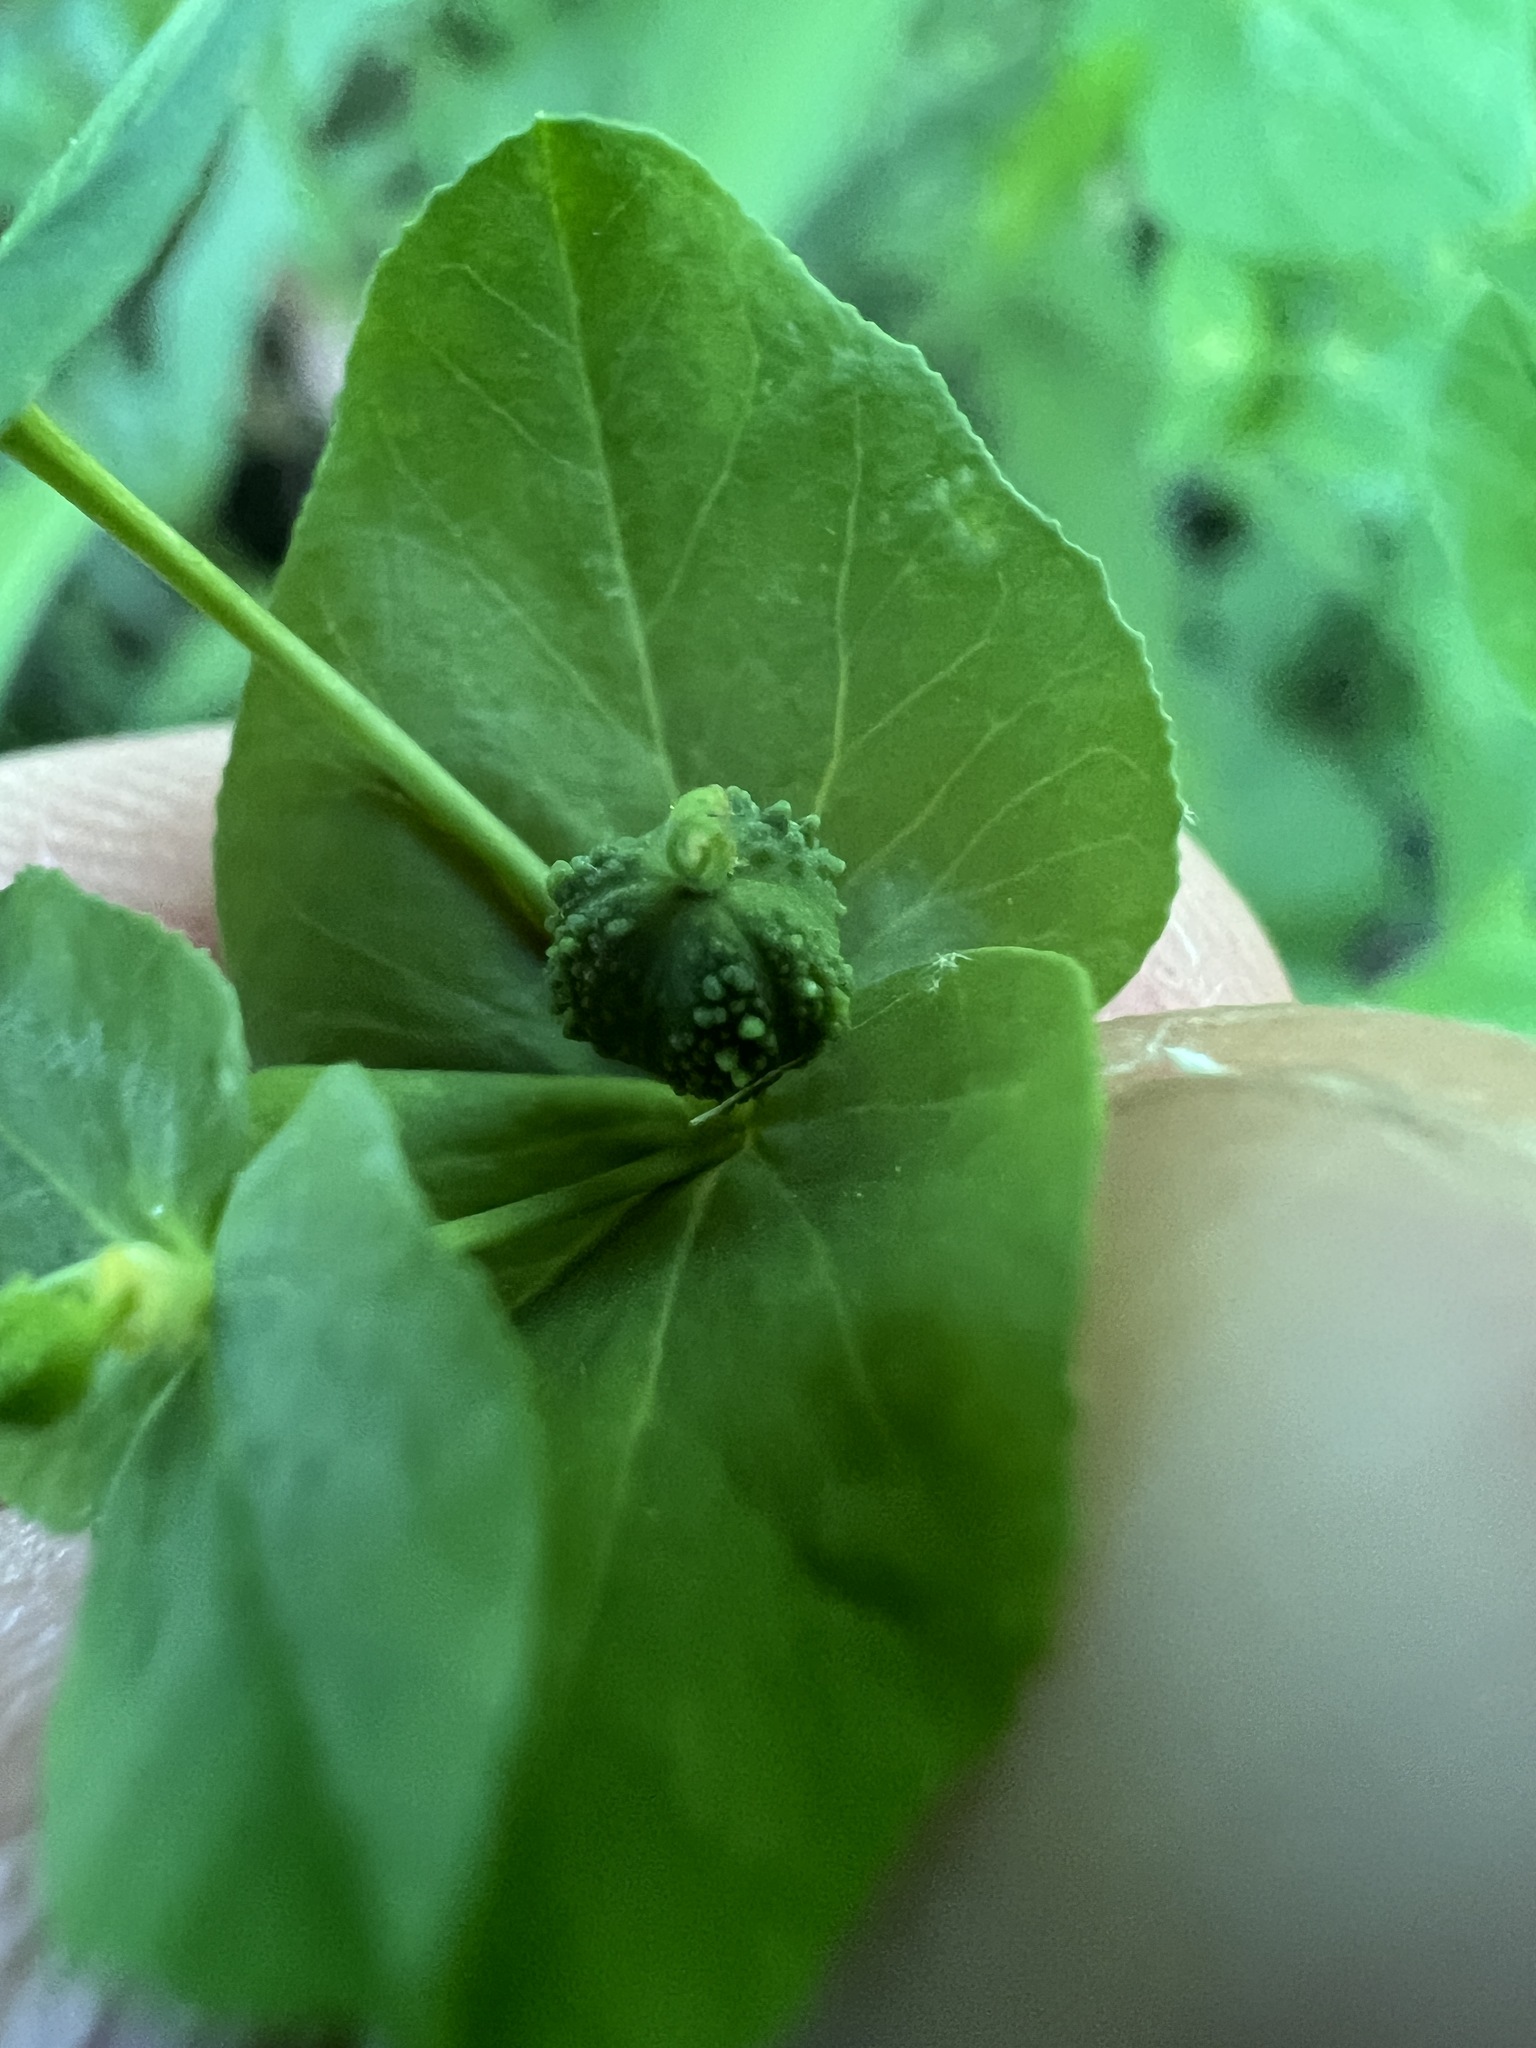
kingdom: Plantae
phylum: Tracheophyta
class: Magnoliopsida
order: Malpighiales
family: Euphorbiaceae
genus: Euphorbia
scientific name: Euphorbia spathulata
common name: Blunt spurge
